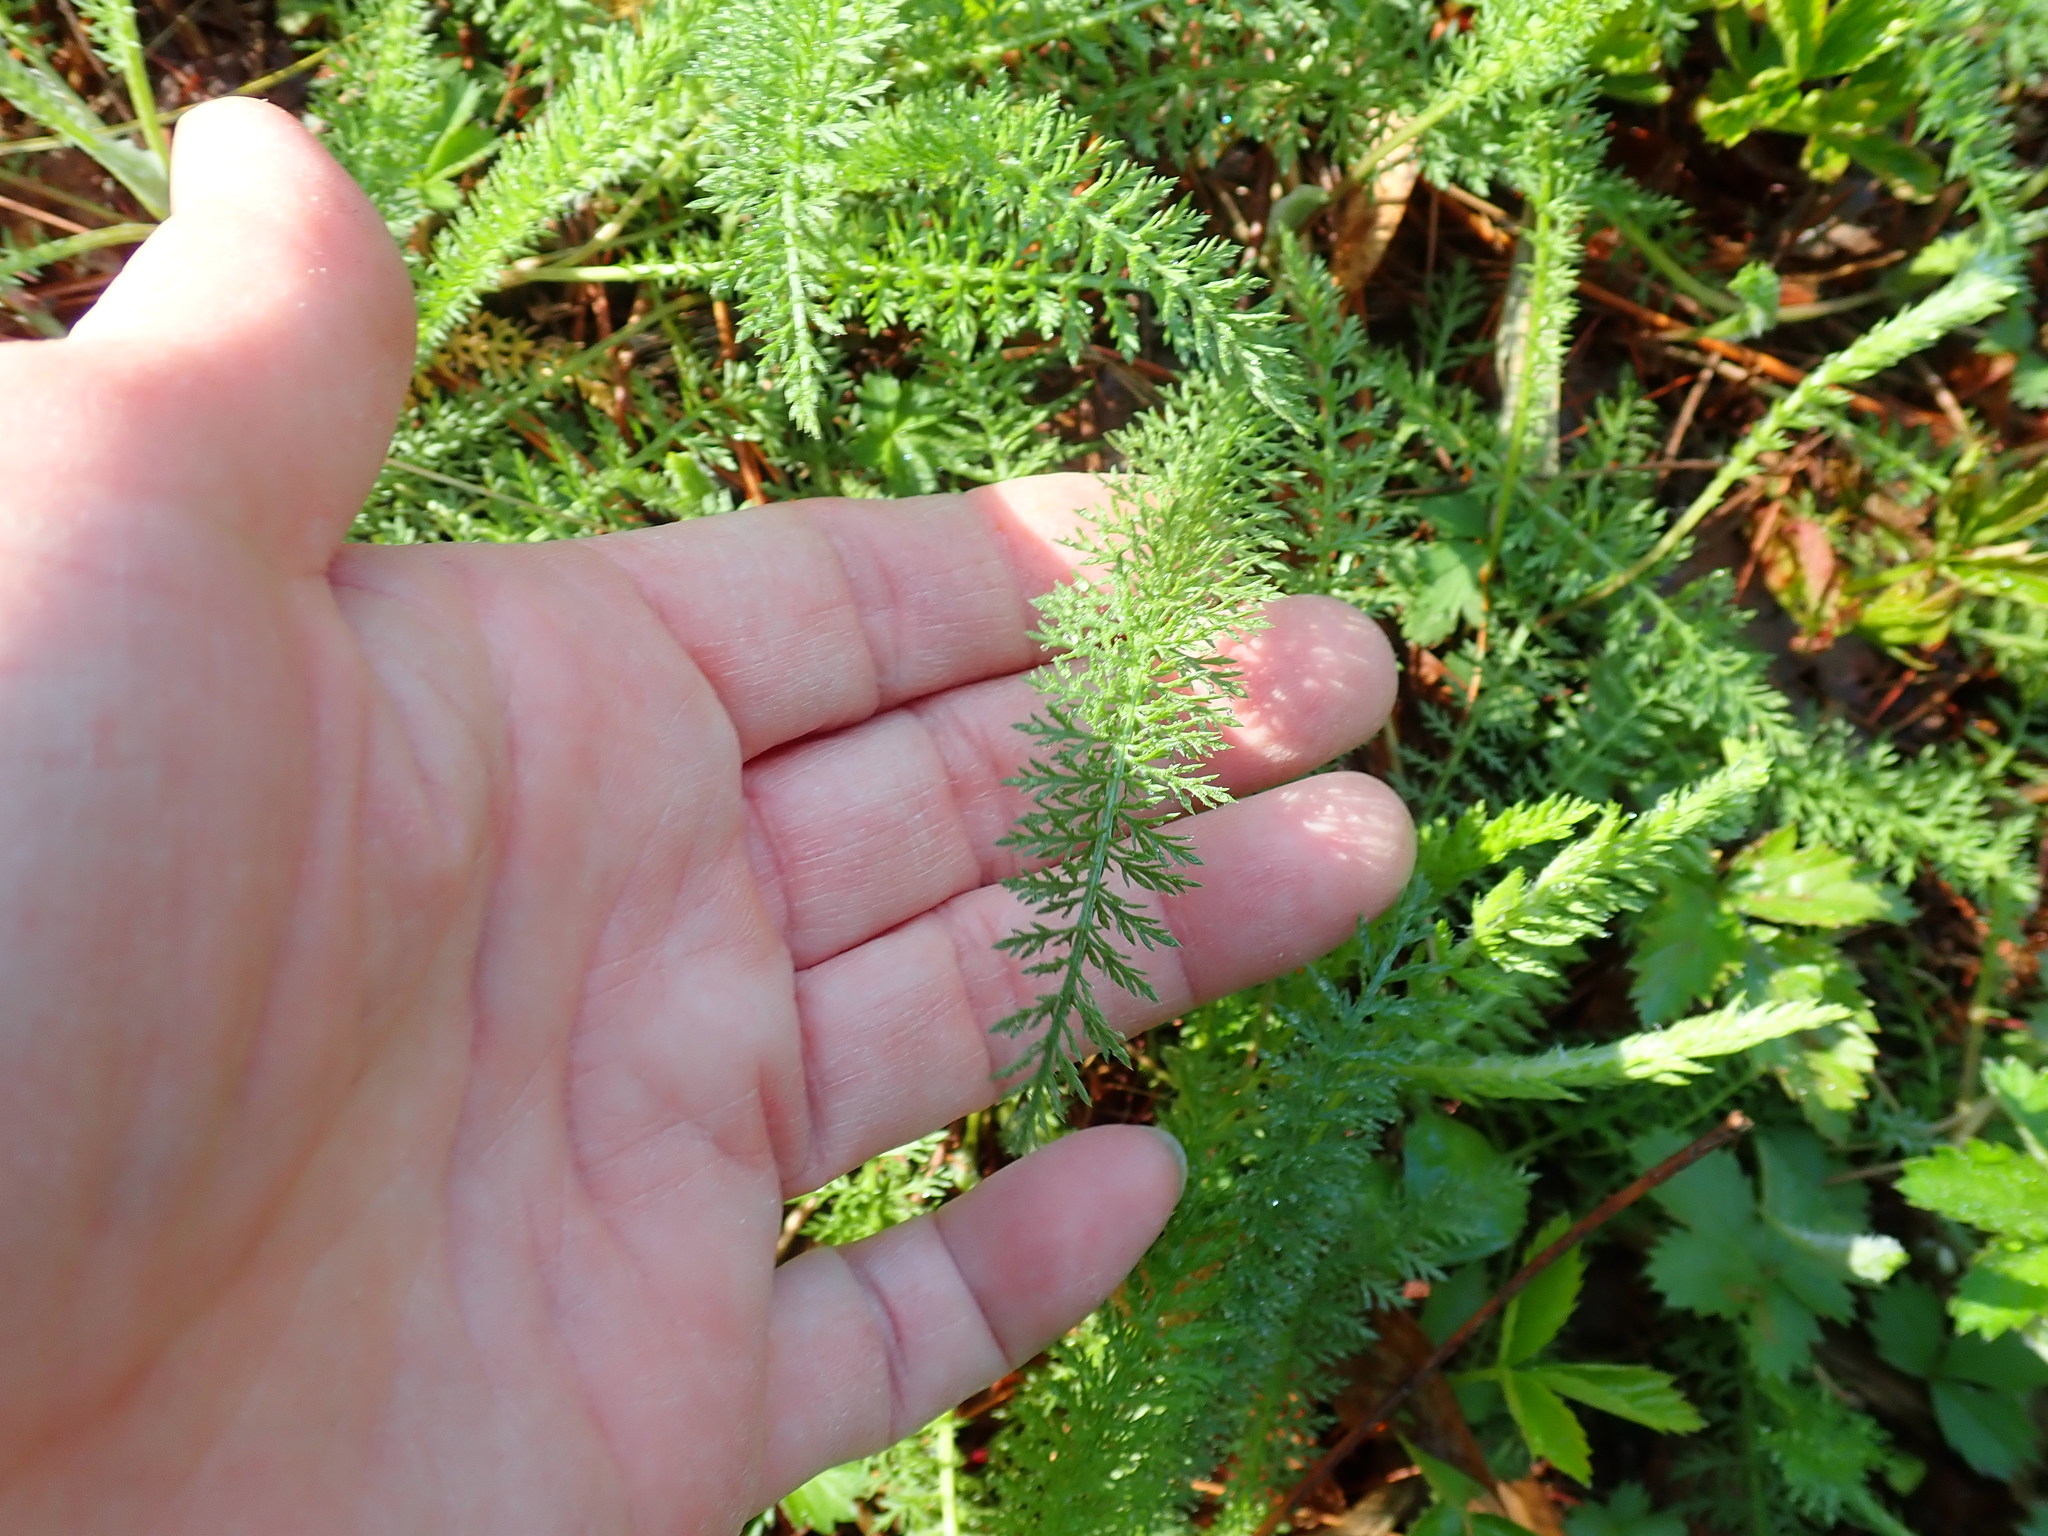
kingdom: Plantae
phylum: Tracheophyta
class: Magnoliopsida
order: Asterales
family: Asteraceae
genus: Achillea
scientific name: Achillea millefolium
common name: Yarrow
